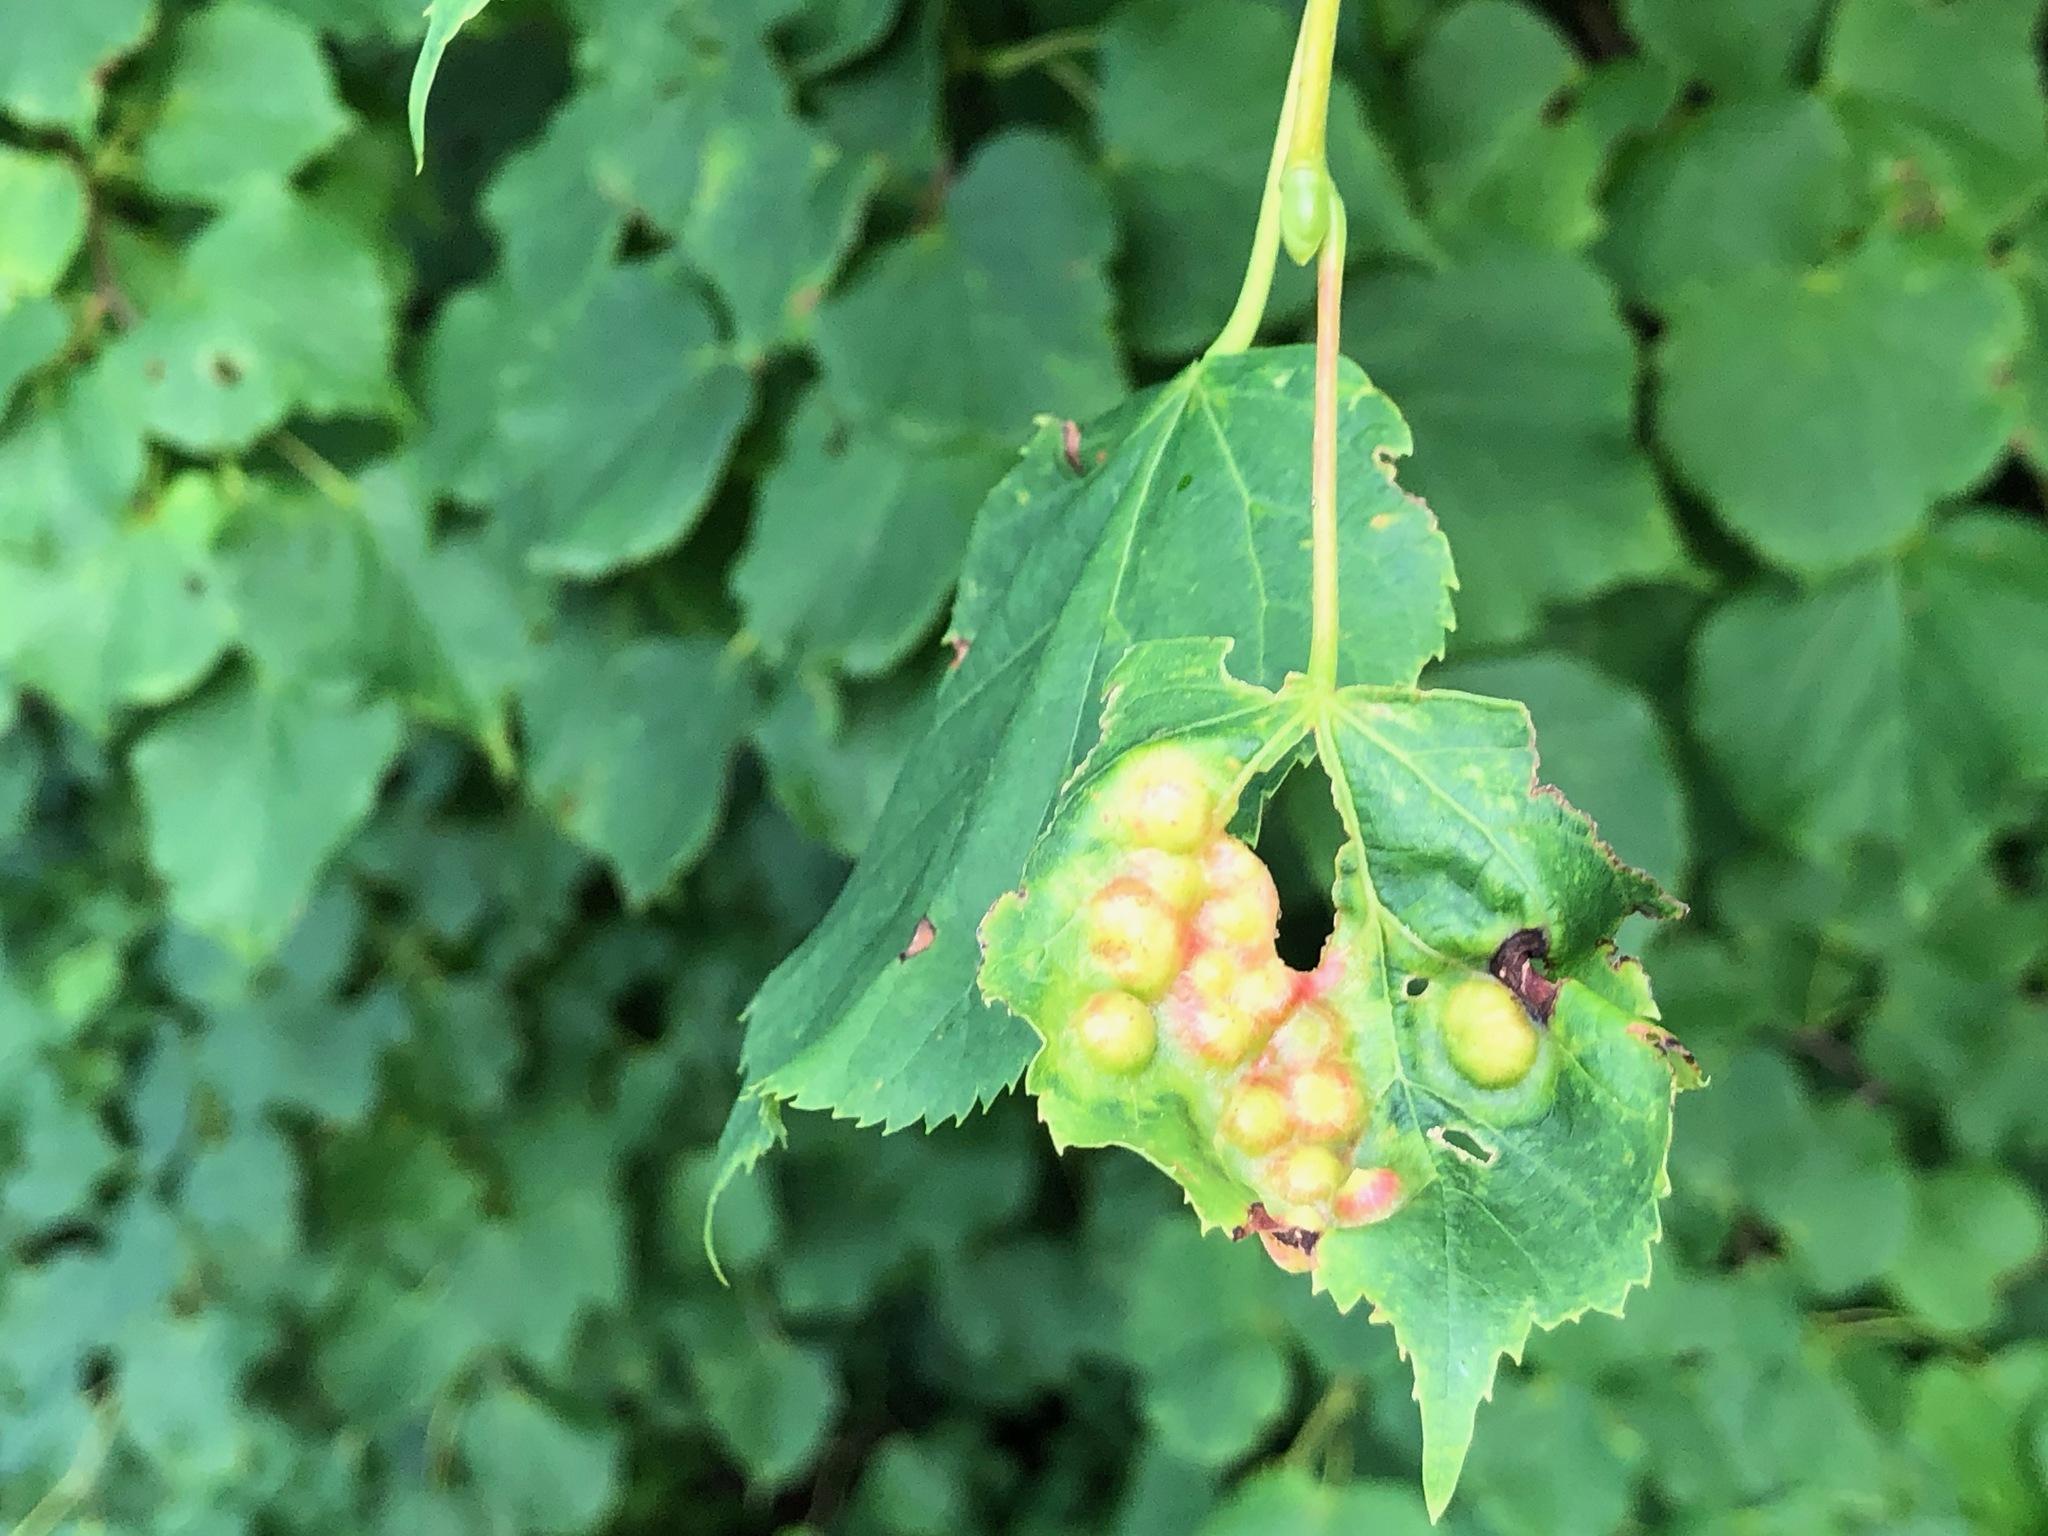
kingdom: Animalia
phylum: Arthropoda
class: Insecta
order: Diptera
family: Cecidomyiidae
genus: Didymomyia
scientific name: Didymomyia tiliacea
